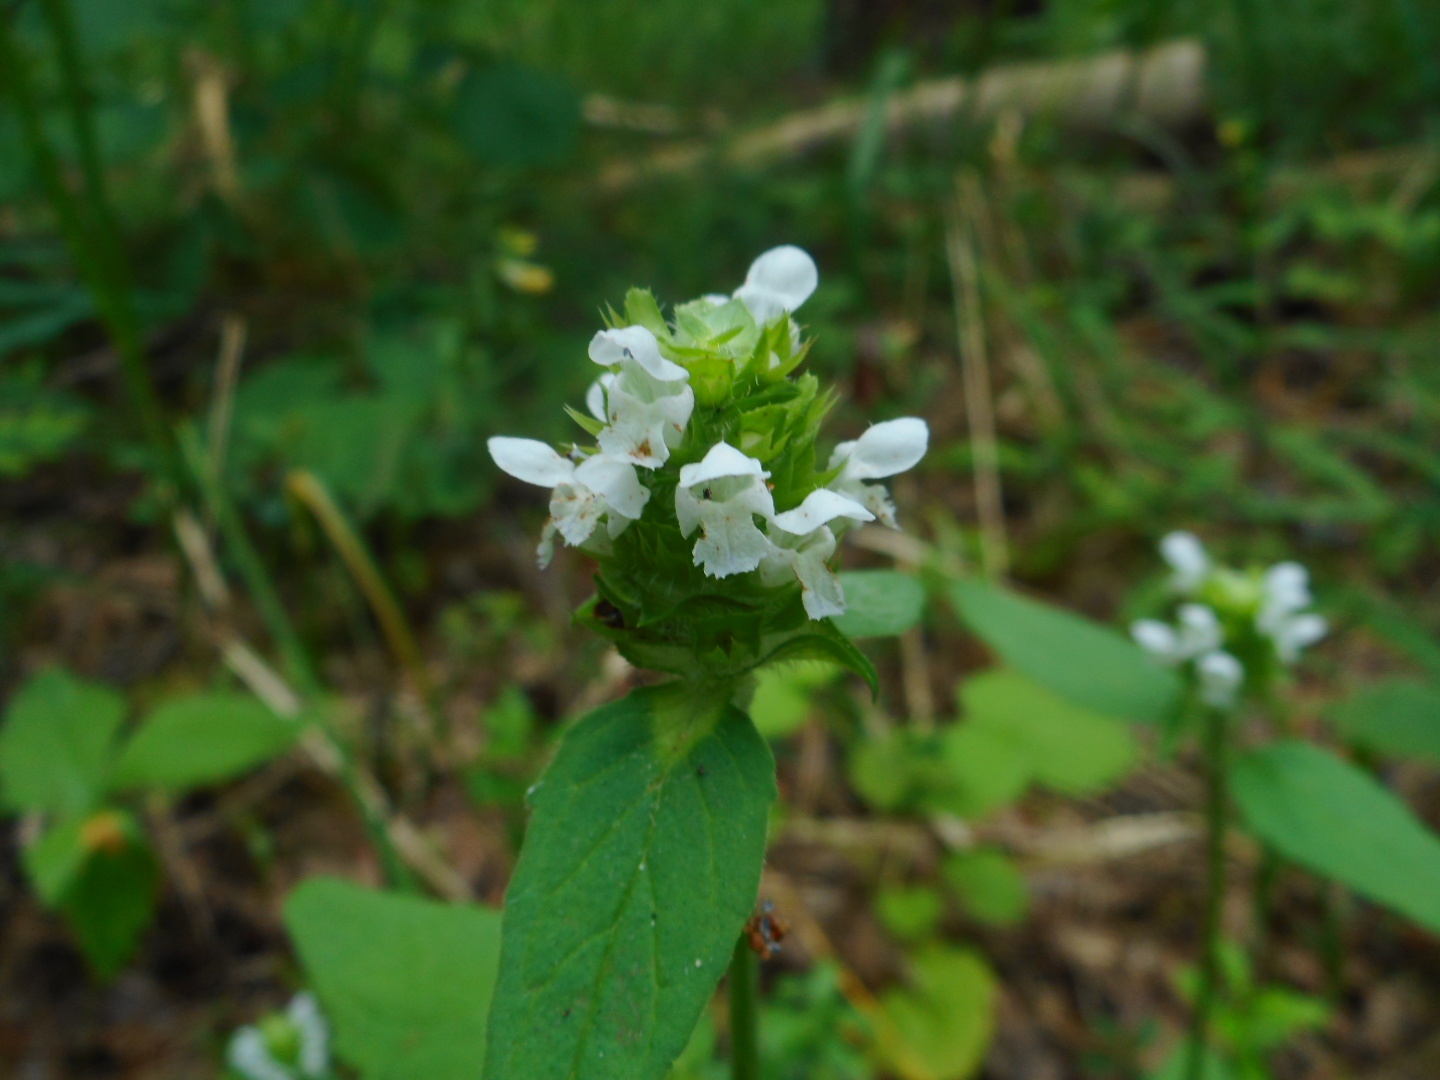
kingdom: Plantae
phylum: Tracheophyta
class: Magnoliopsida
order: Lamiales
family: Lamiaceae
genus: Prunella
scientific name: Prunella vulgaris
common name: Heal-all
